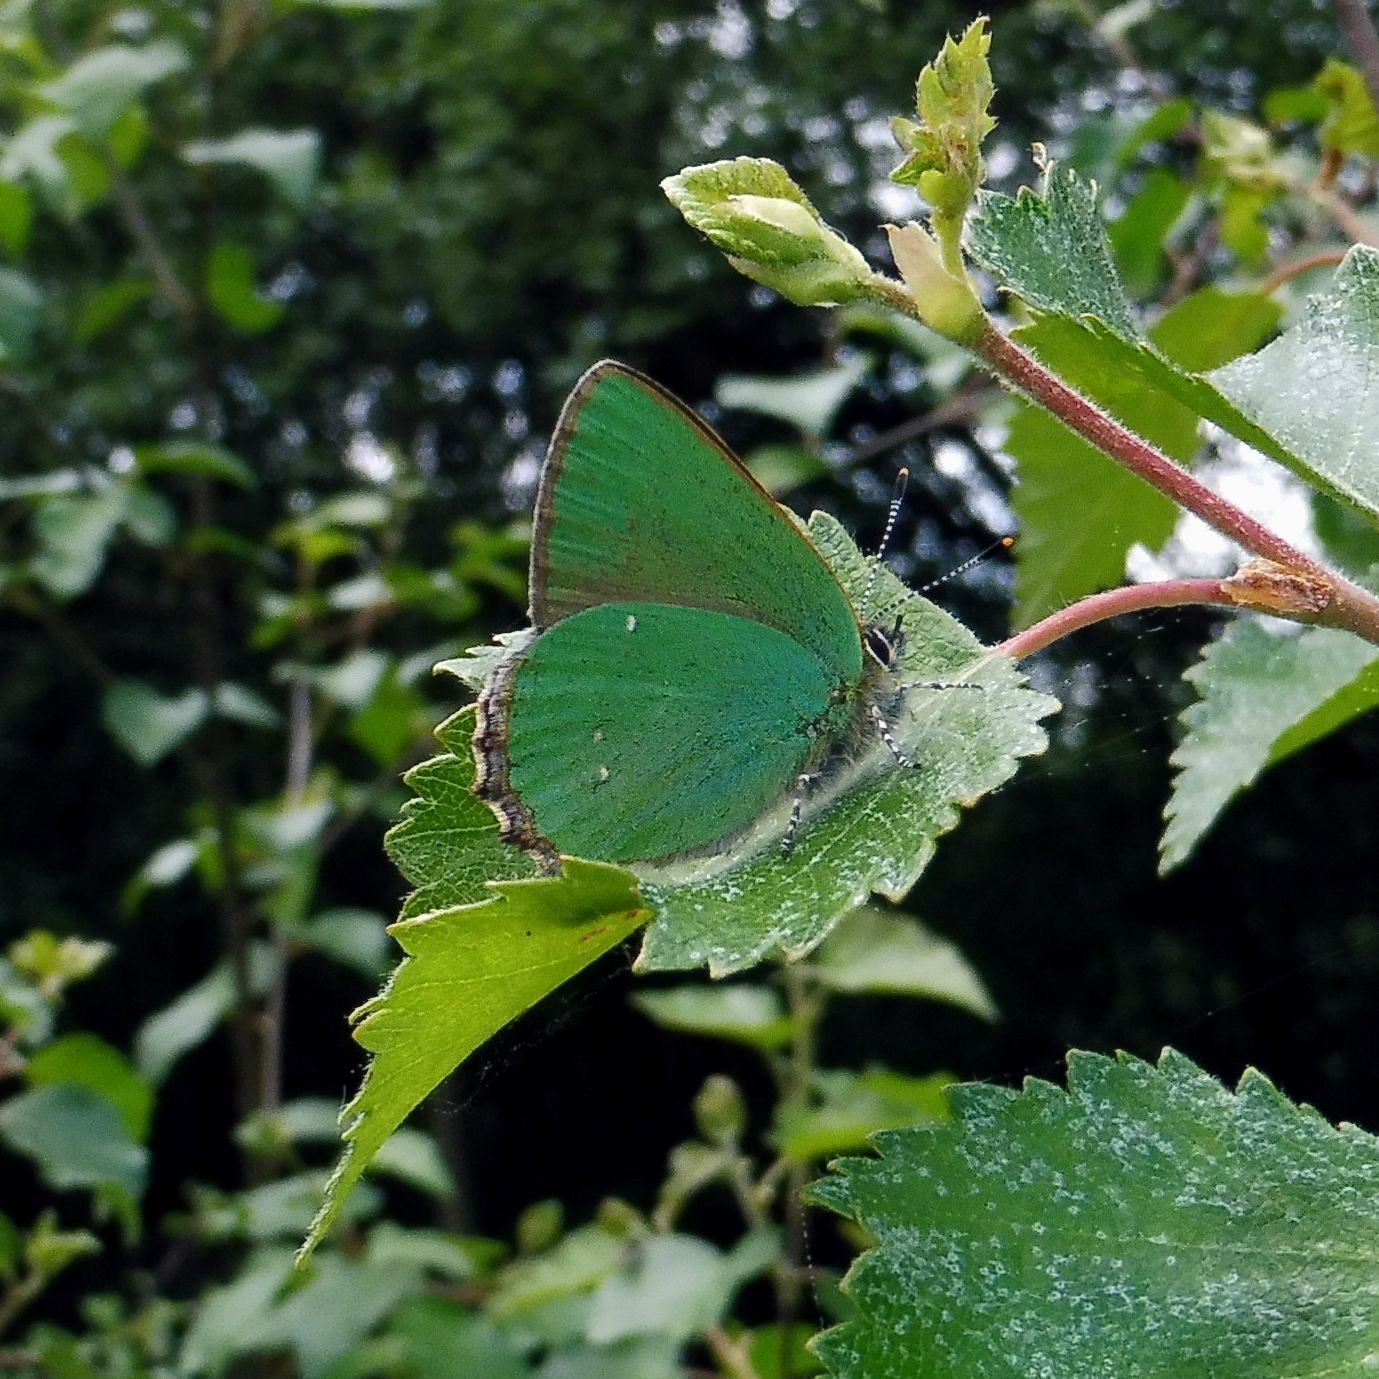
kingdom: Animalia
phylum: Arthropoda
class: Insecta
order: Lepidoptera
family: Lycaenidae
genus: Callophrys
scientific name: Callophrys rubi
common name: Green hairstreak
